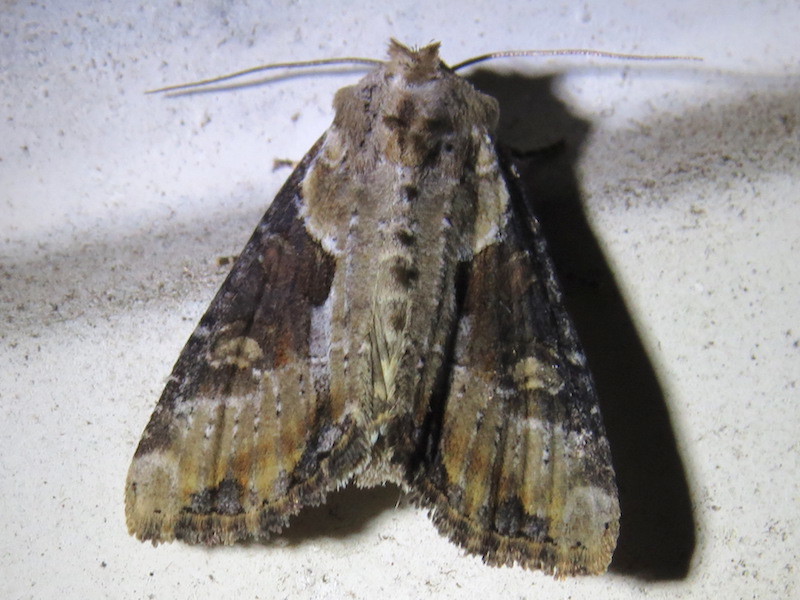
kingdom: Animalia
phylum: Arthropoda
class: Insecta
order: Lepidoptera
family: Noctuidae
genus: Lateroligia
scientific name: Lateroligia ophiogramma
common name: Double lobed
